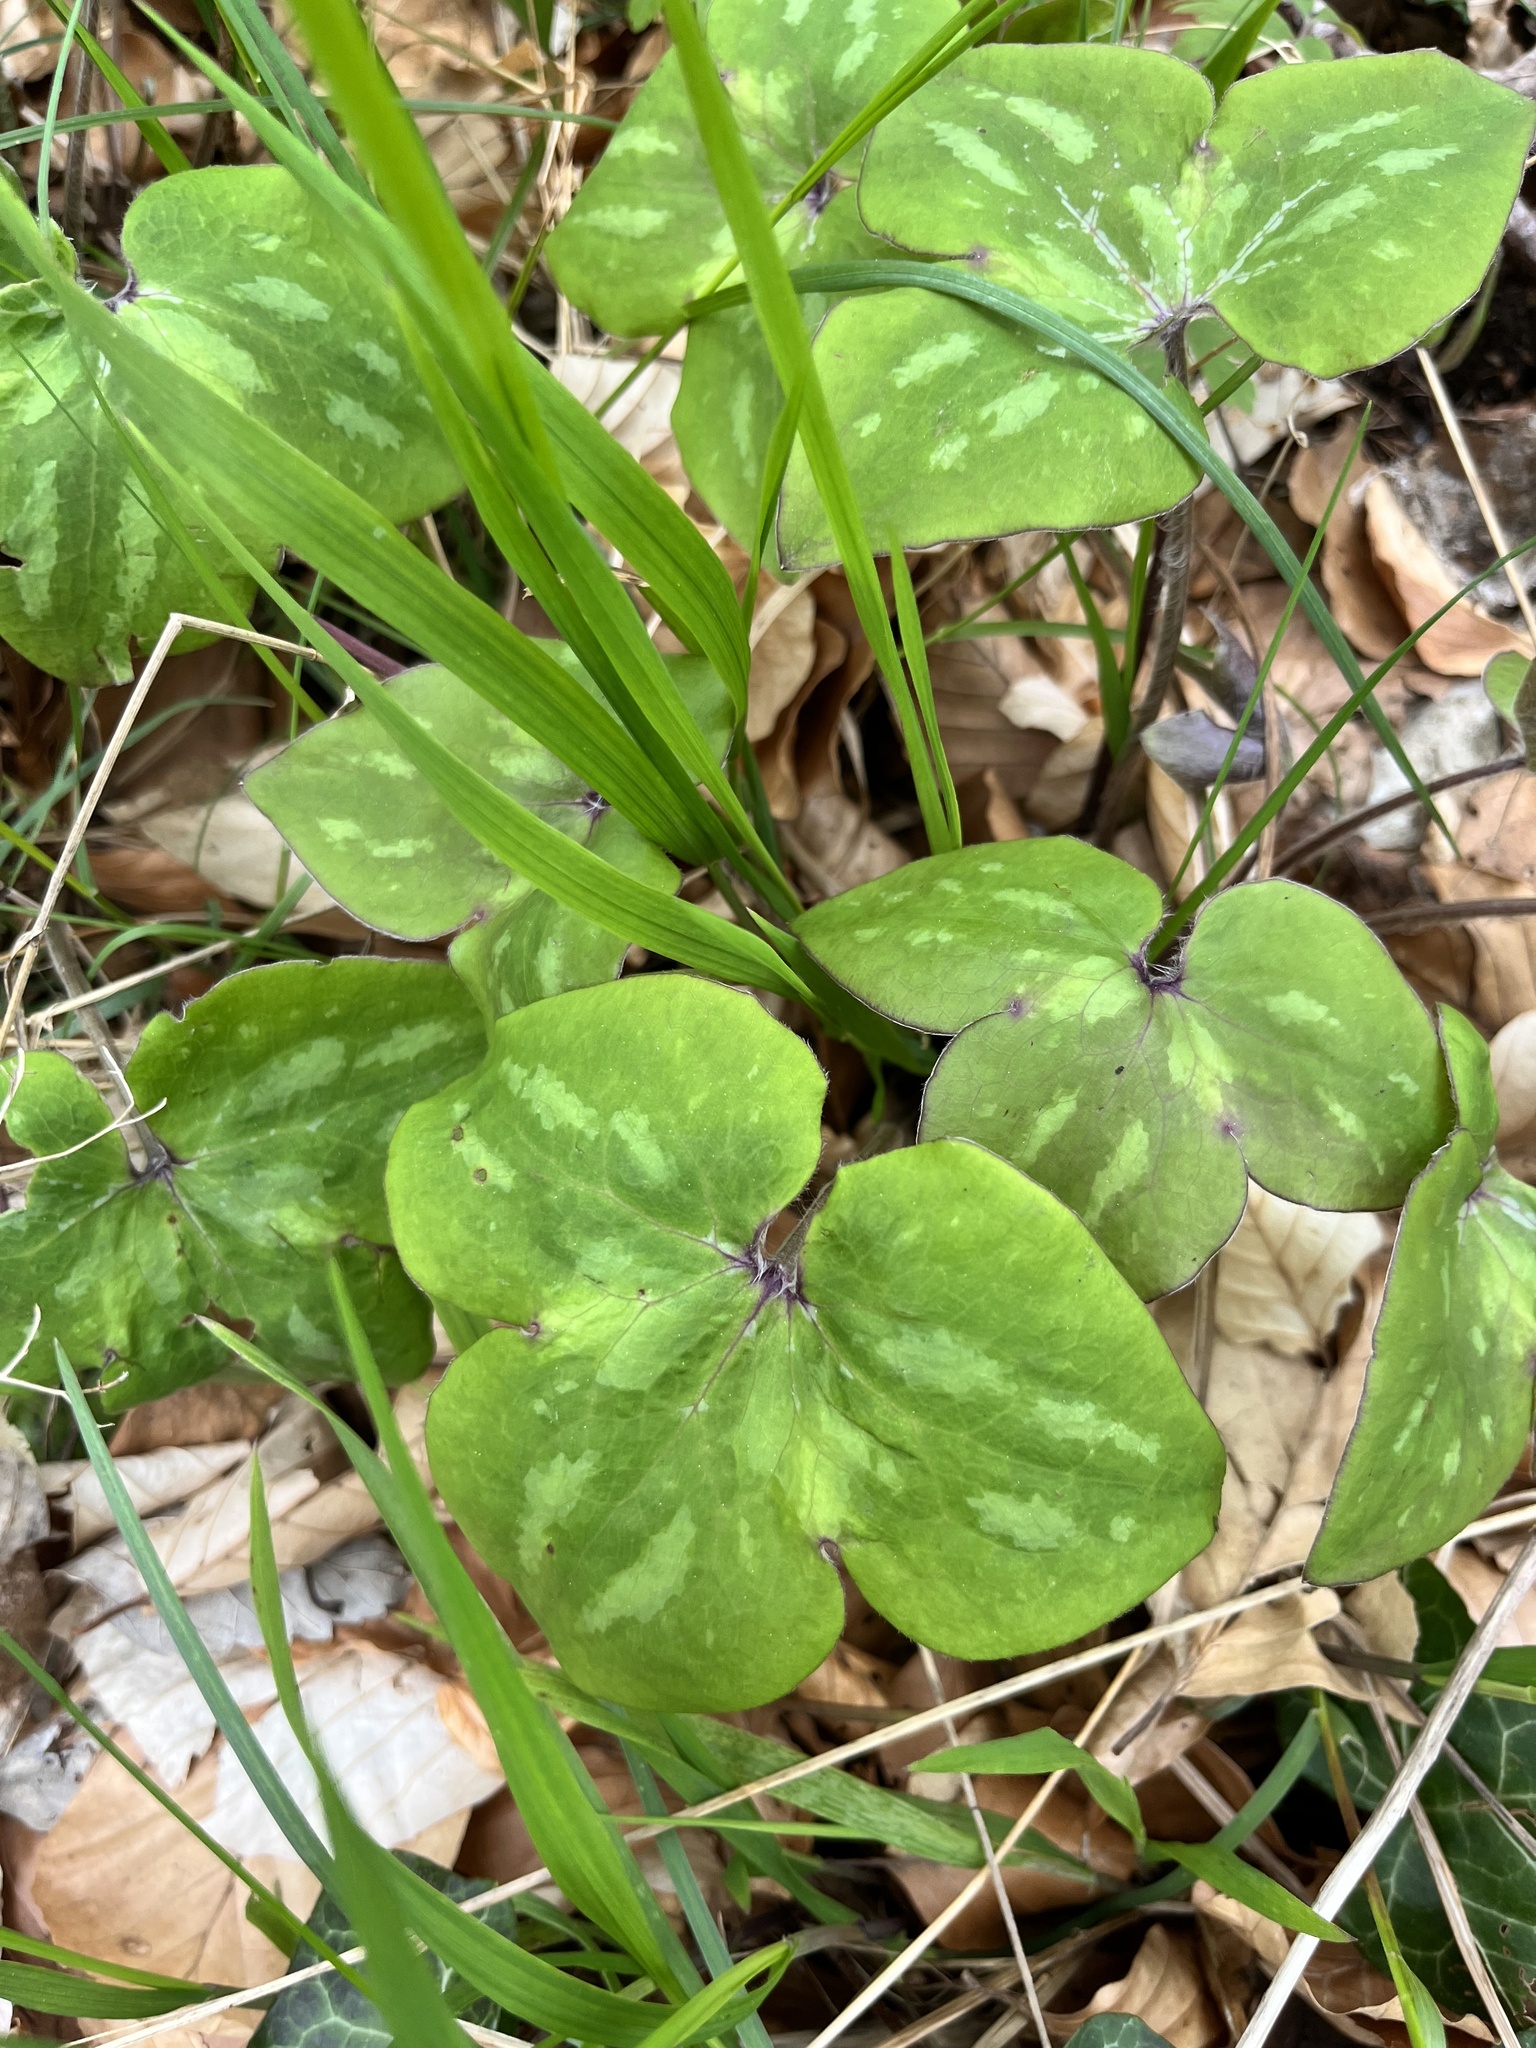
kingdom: Plantae
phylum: Tracheophyta
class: Magnoliopsida
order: Ranunculales
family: Ranunculaceae
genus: Hepatica
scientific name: Hepatica nobilis
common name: Liverleaf
